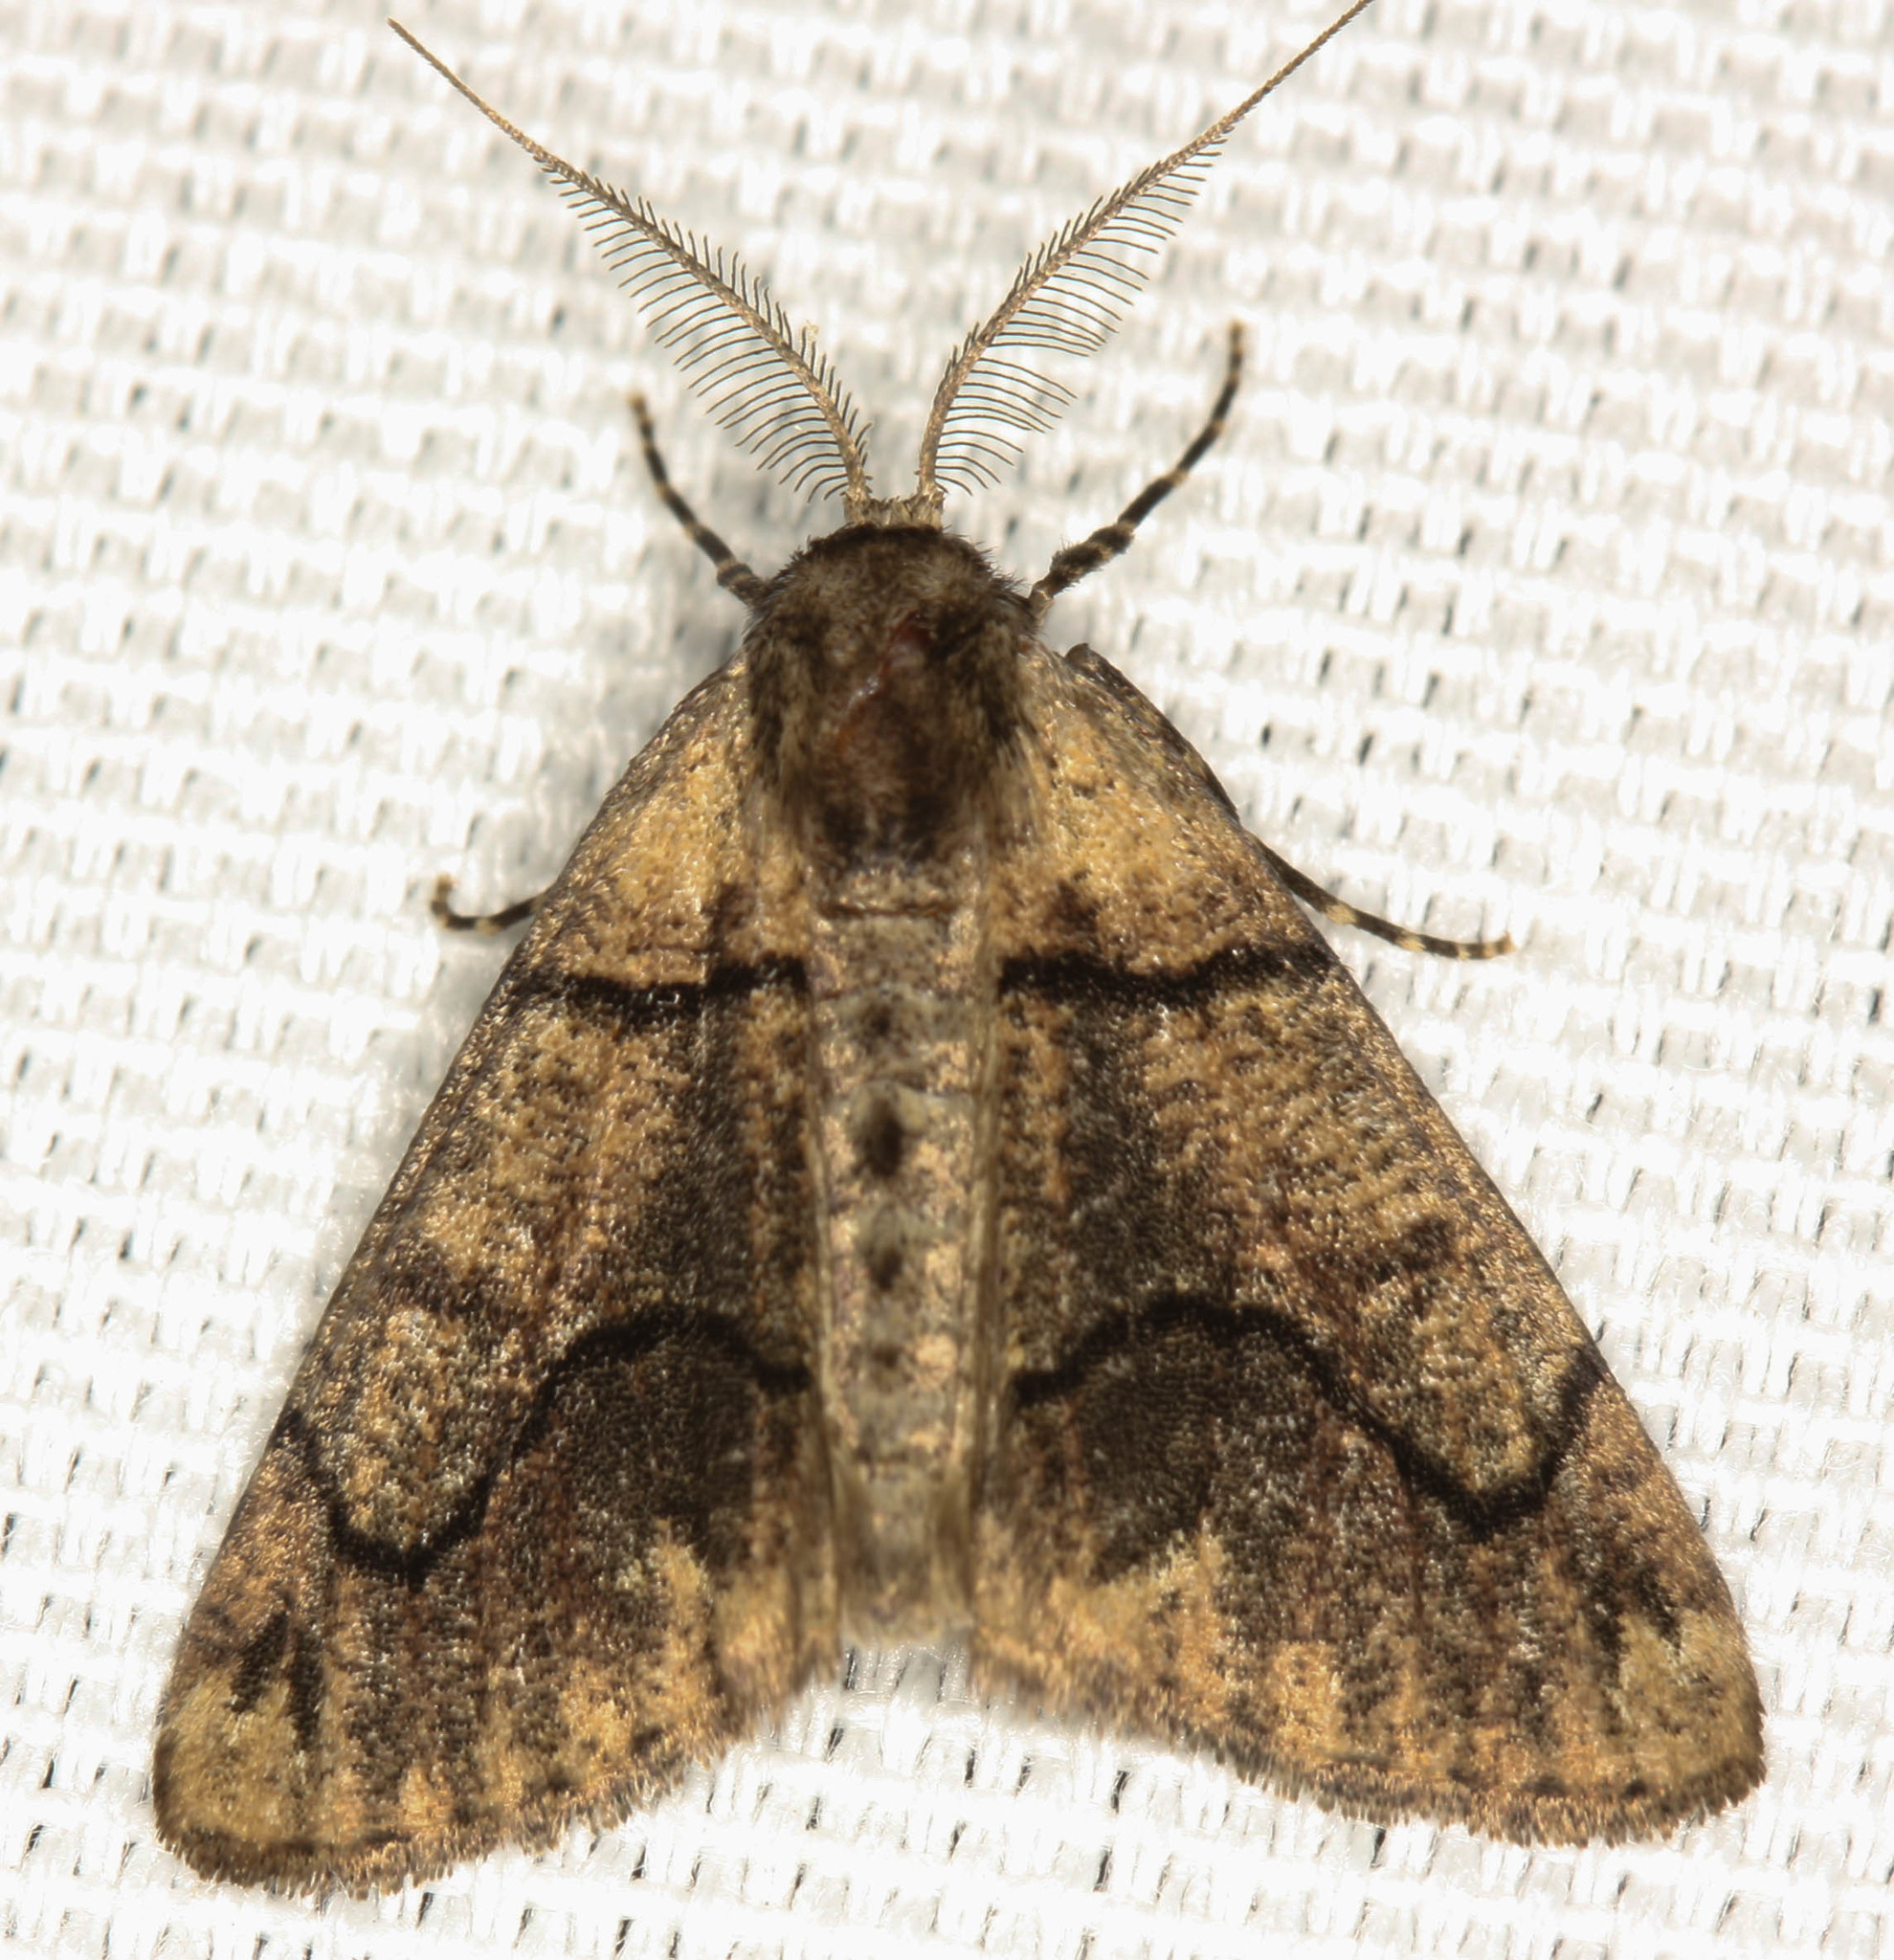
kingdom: Animalia
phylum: Arthropoda
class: Insecta
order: Lepidoptera
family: Geometridae
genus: Gabriola
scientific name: Gabriola dyari
